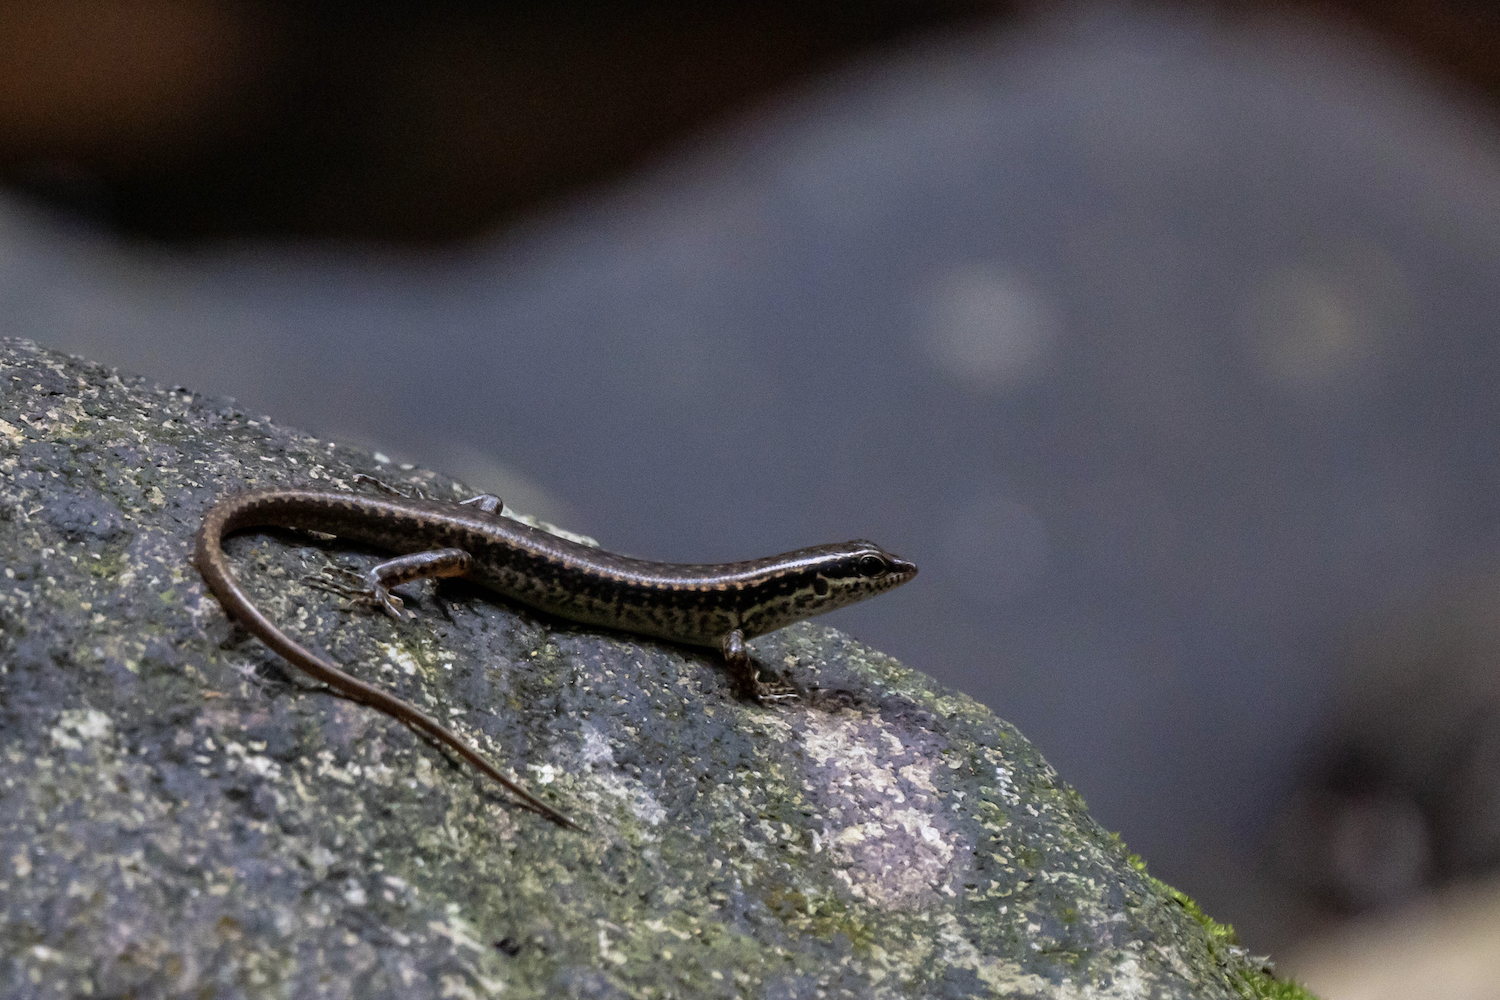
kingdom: Animalia
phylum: Chordata
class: Squamata
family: Scincidae
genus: Sphenomorphus
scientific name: Sphenomorphus incognitus
